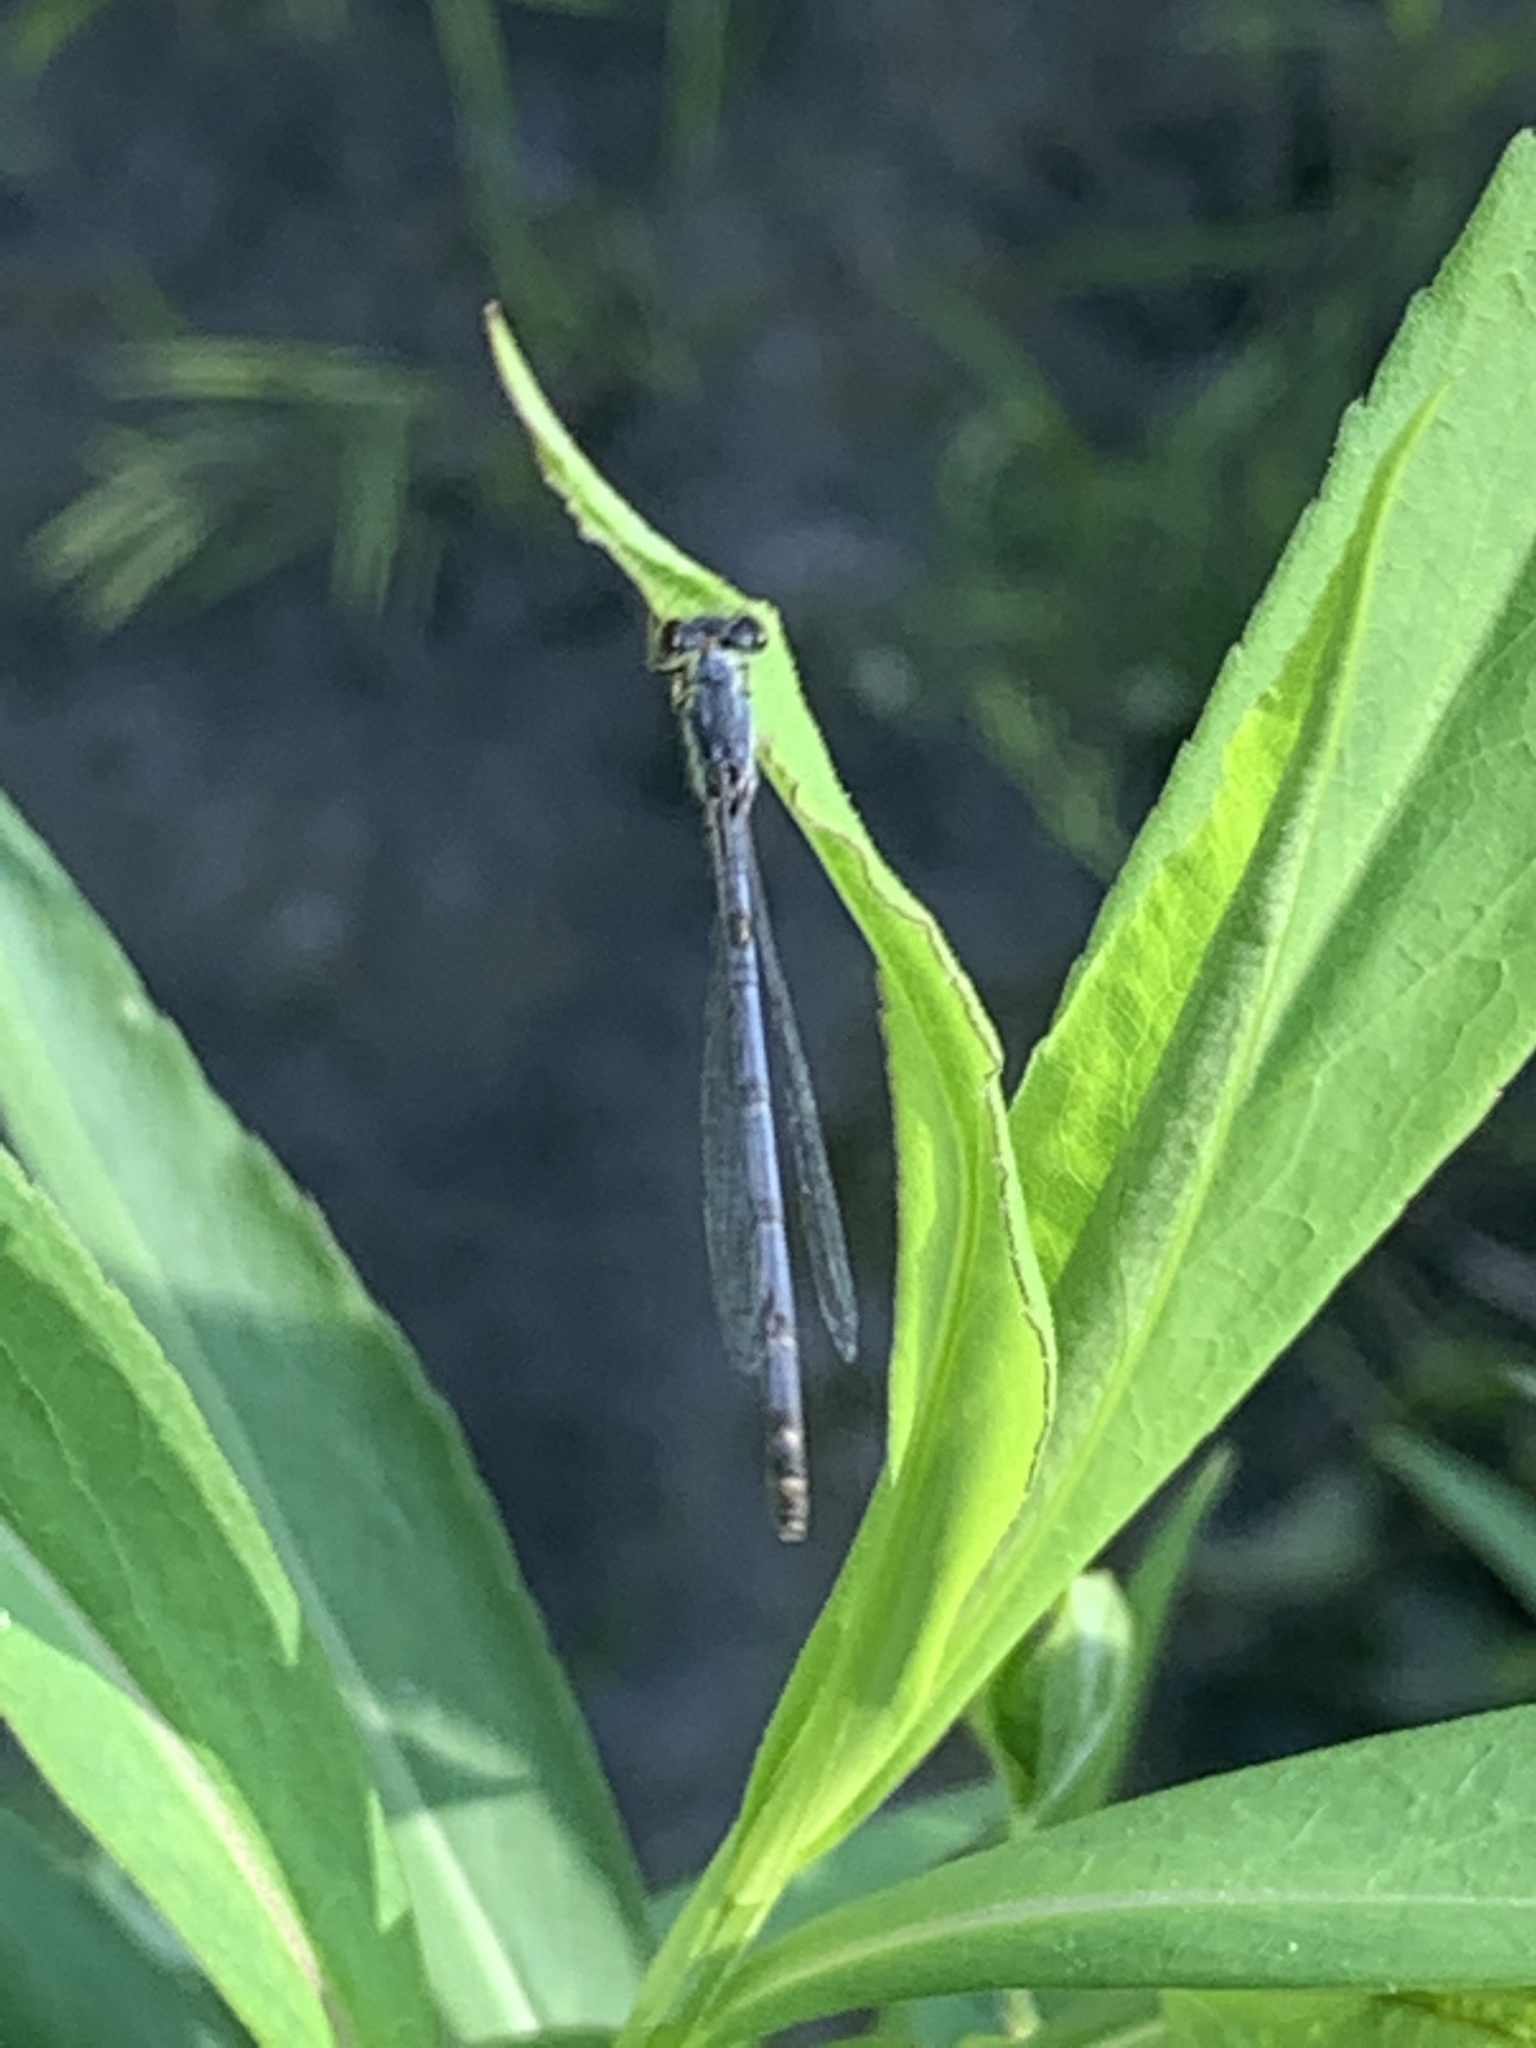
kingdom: Animalia
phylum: Arthropoda
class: Insecta
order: Odonata
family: Coenagrionidae
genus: Ischnura
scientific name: Ischnura posita
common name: Fragile forktail
